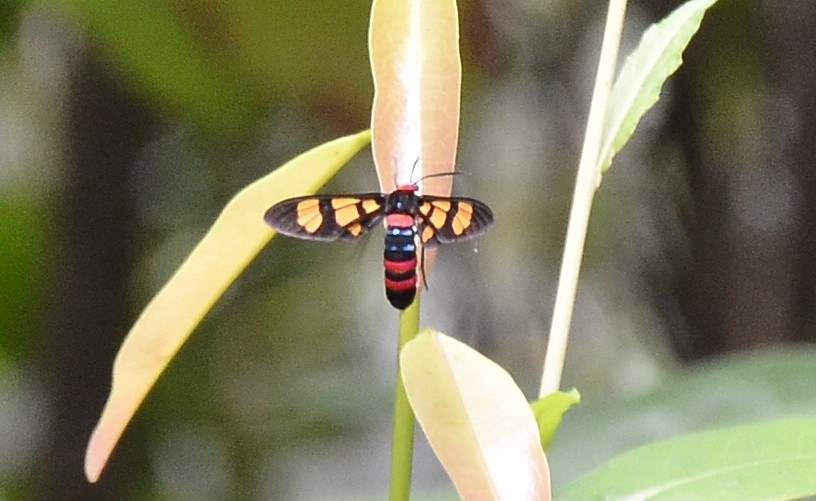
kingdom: Animalia
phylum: Arthropoda
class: Insecta
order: Lepidoptera
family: Erebidae
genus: Euchromia
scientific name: Euchromia polymena
